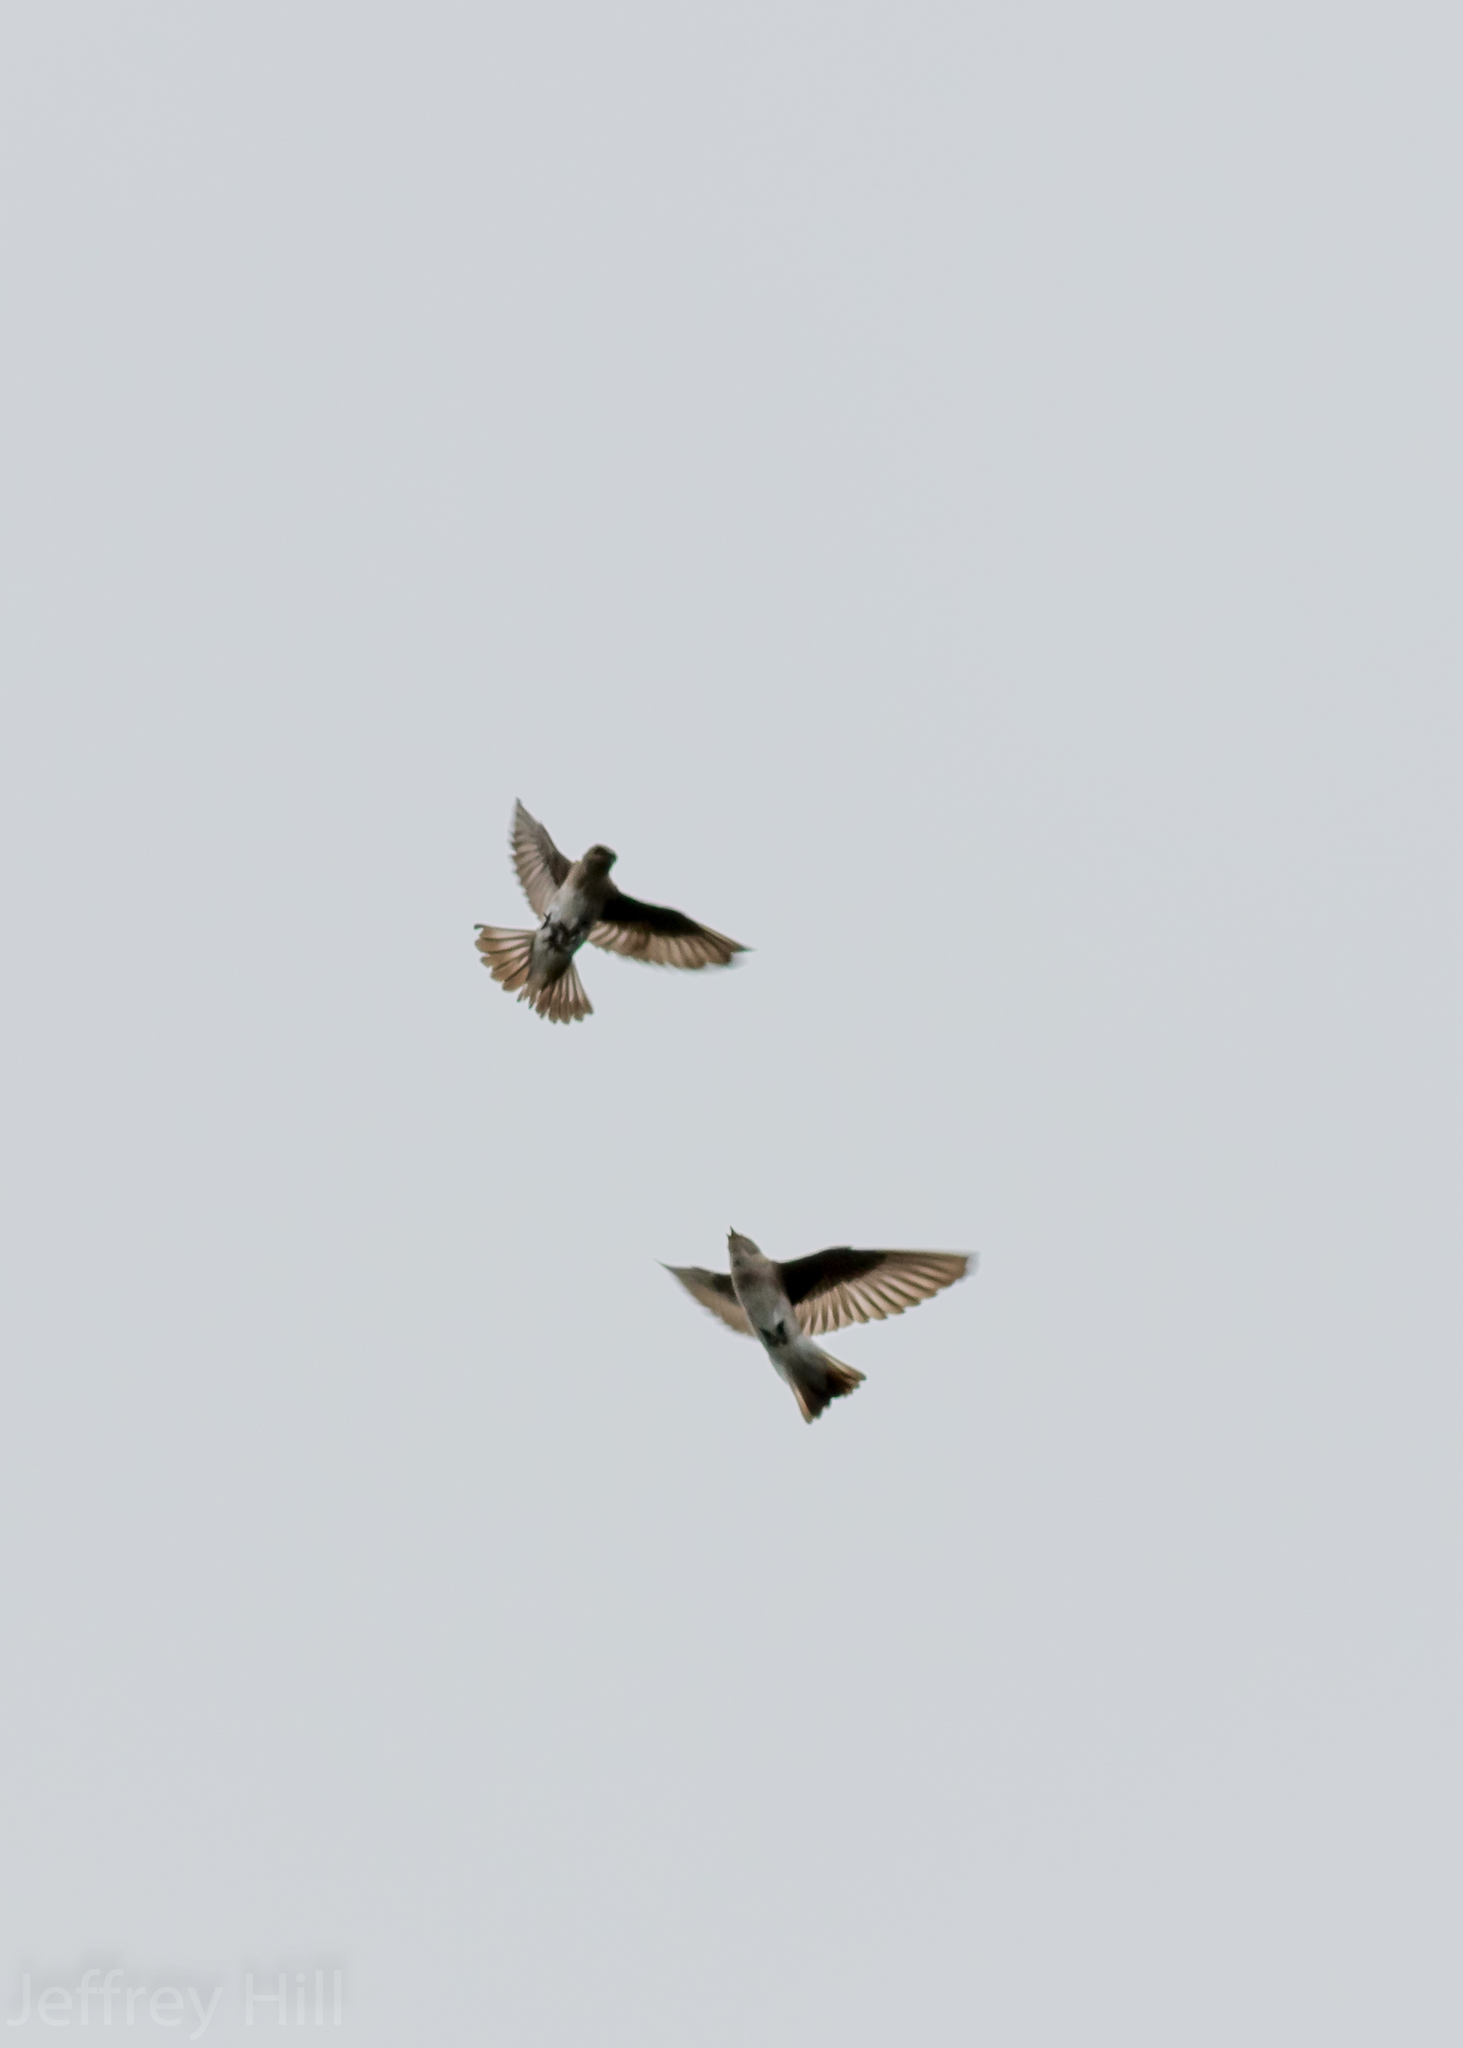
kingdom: Animalia
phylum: Chordata
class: Aves
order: Passeriformes
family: Hirundinidae
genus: Stelgidopteryx
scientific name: Stelgidopteryx serripennis
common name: Northern rough-winged swallow
